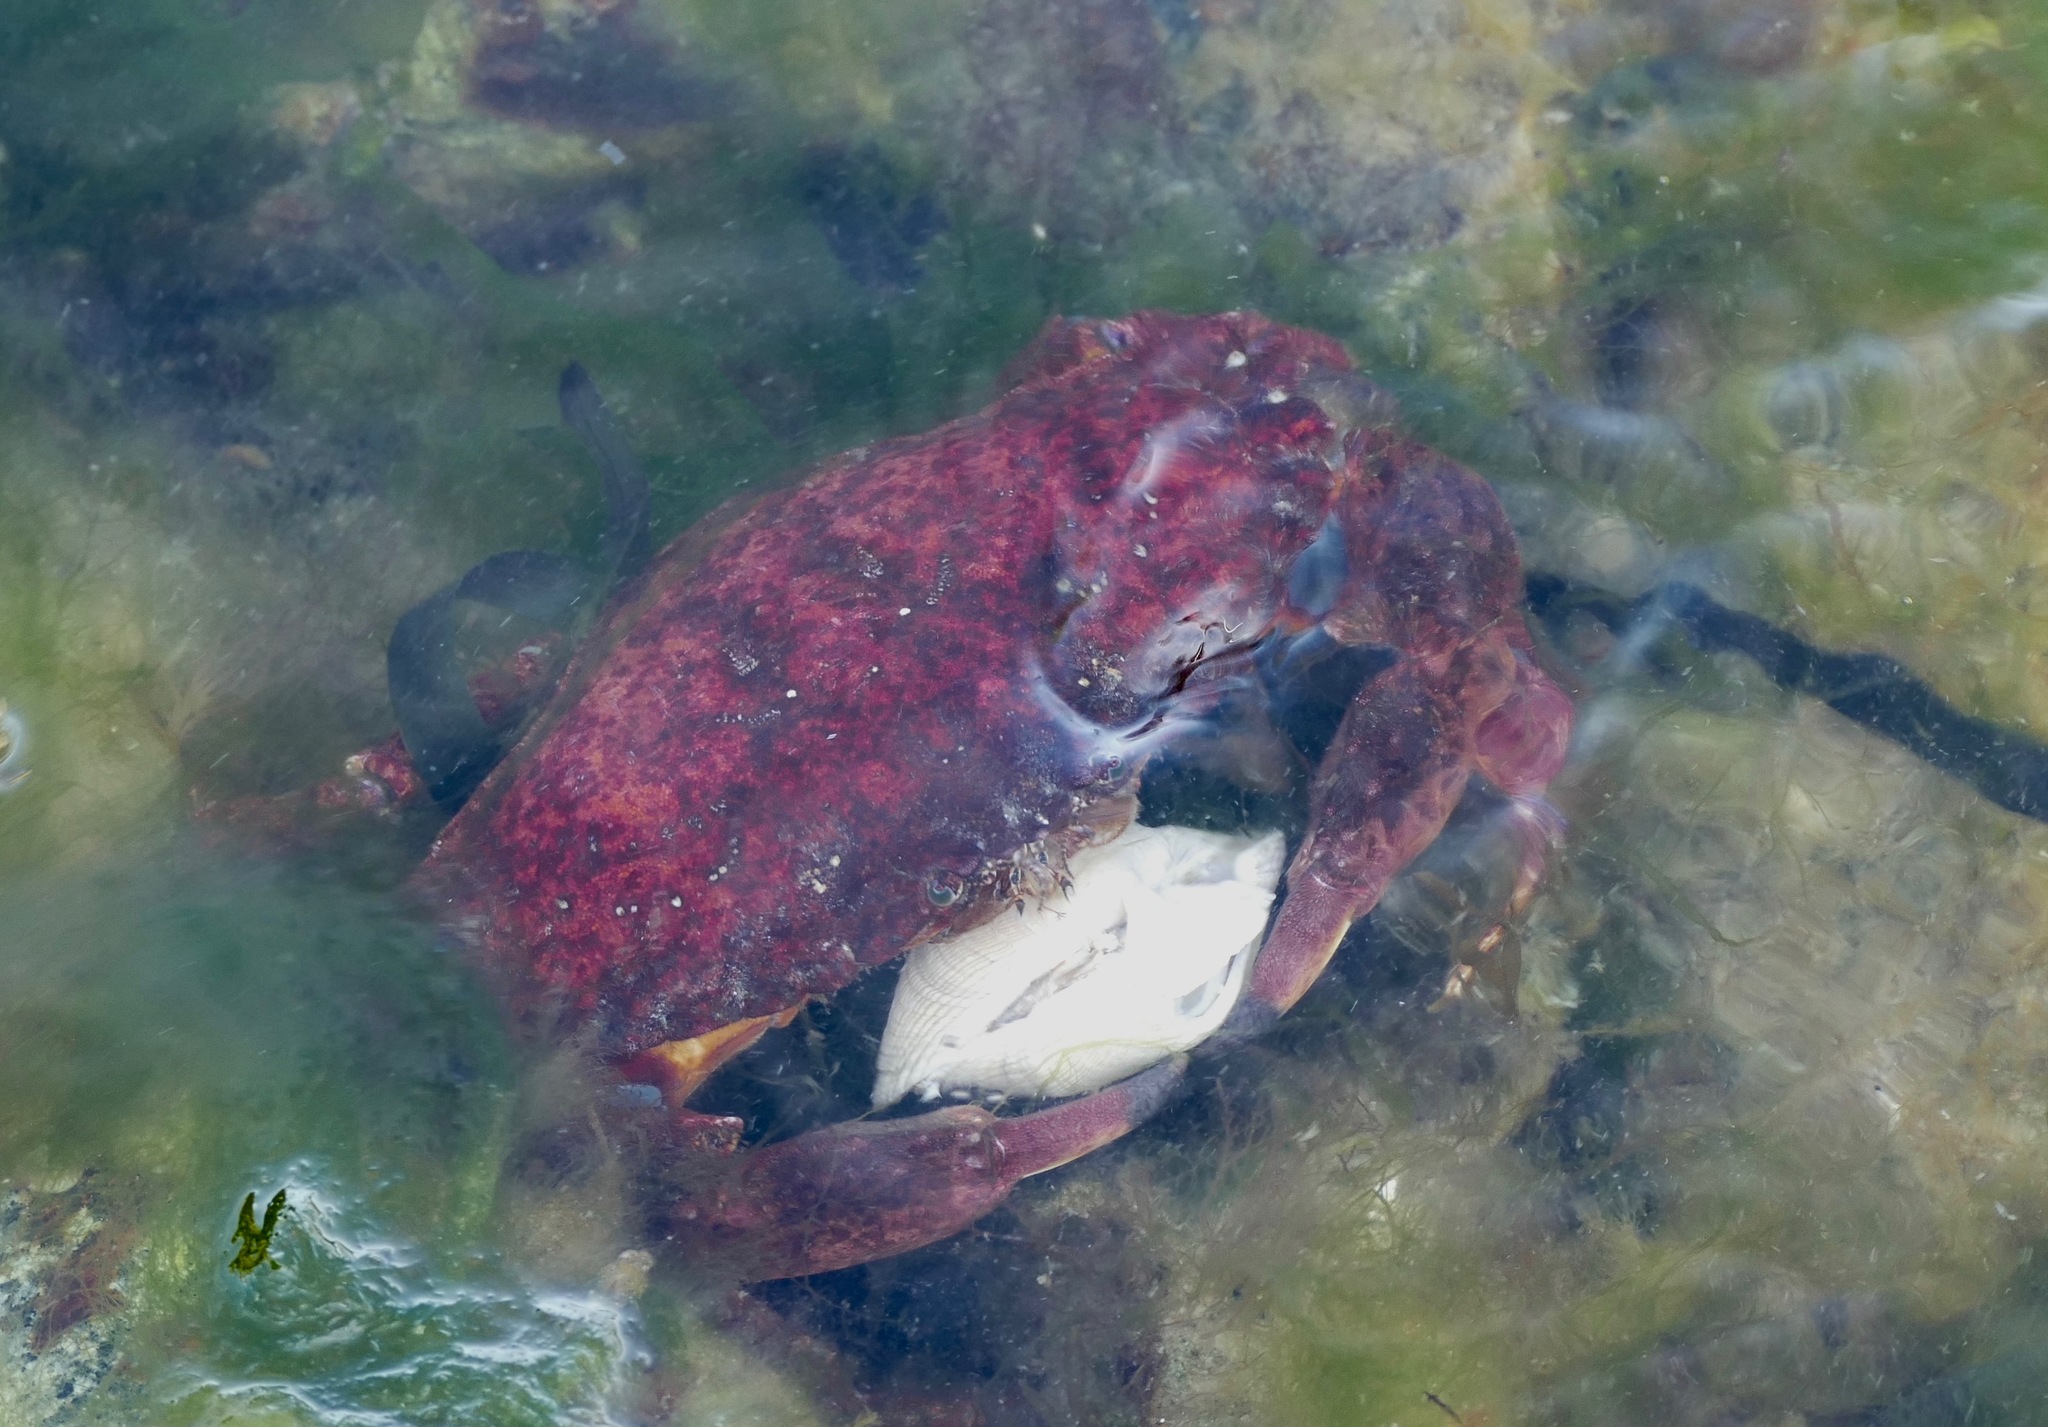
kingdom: Animalia
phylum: Arthropoda
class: Malacostraca
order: Decapoda
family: Cancridae
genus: Cancer
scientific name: Cancer productus
